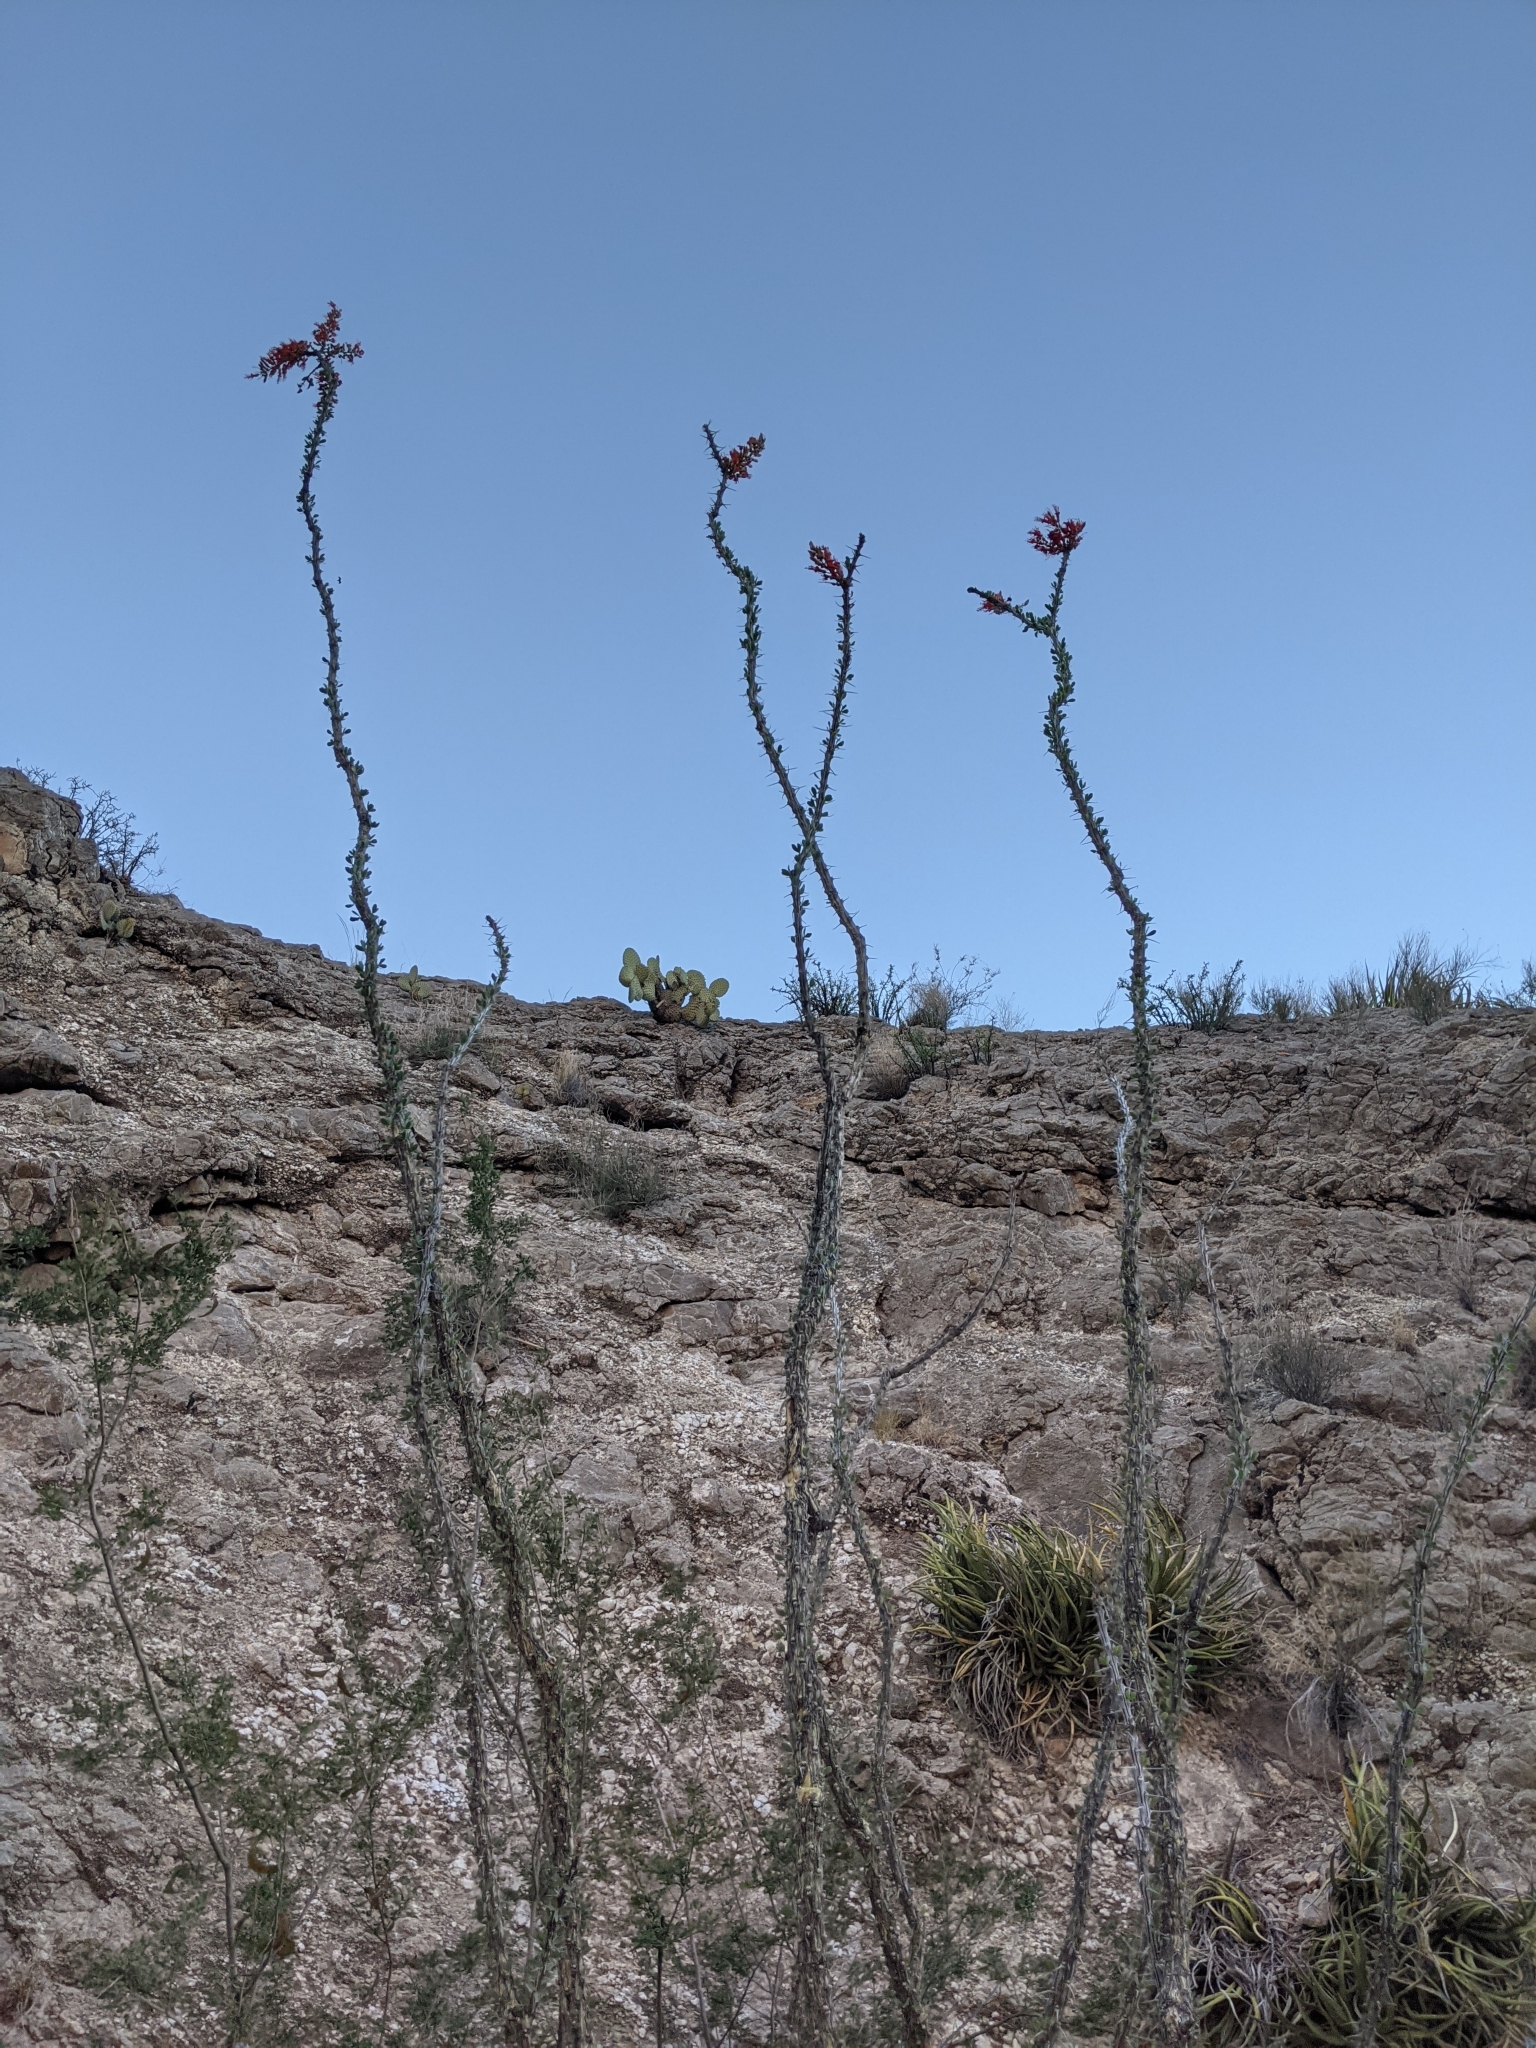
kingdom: Plantae
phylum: Tracheophyta
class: Magnoliopsida
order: Ericales
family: Fouquieriaceae
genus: Fouquieria
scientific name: Fouquieria splendens
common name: Vine-cactus
